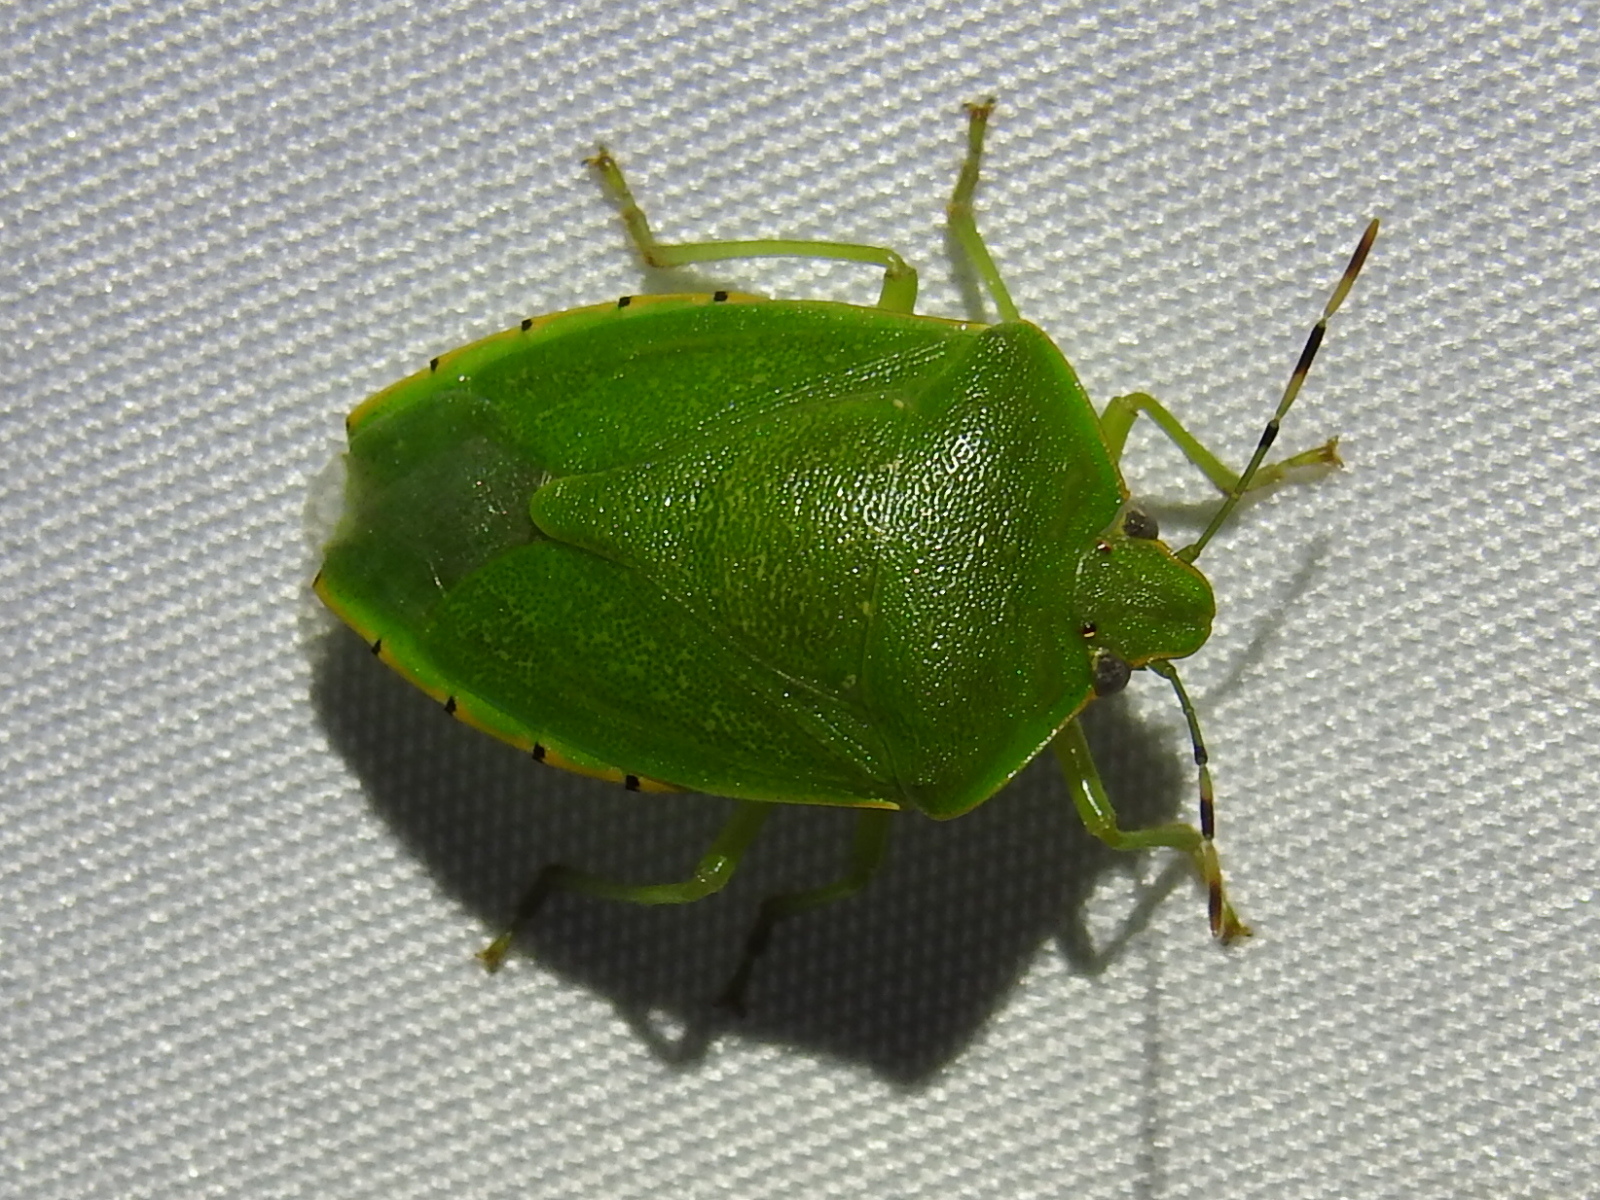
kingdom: Animalia
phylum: Arthropoda
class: Insecta
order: Hemiptera
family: Pentatomidae
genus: Chinavia
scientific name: Chinavia hilaris
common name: Green stink bug
